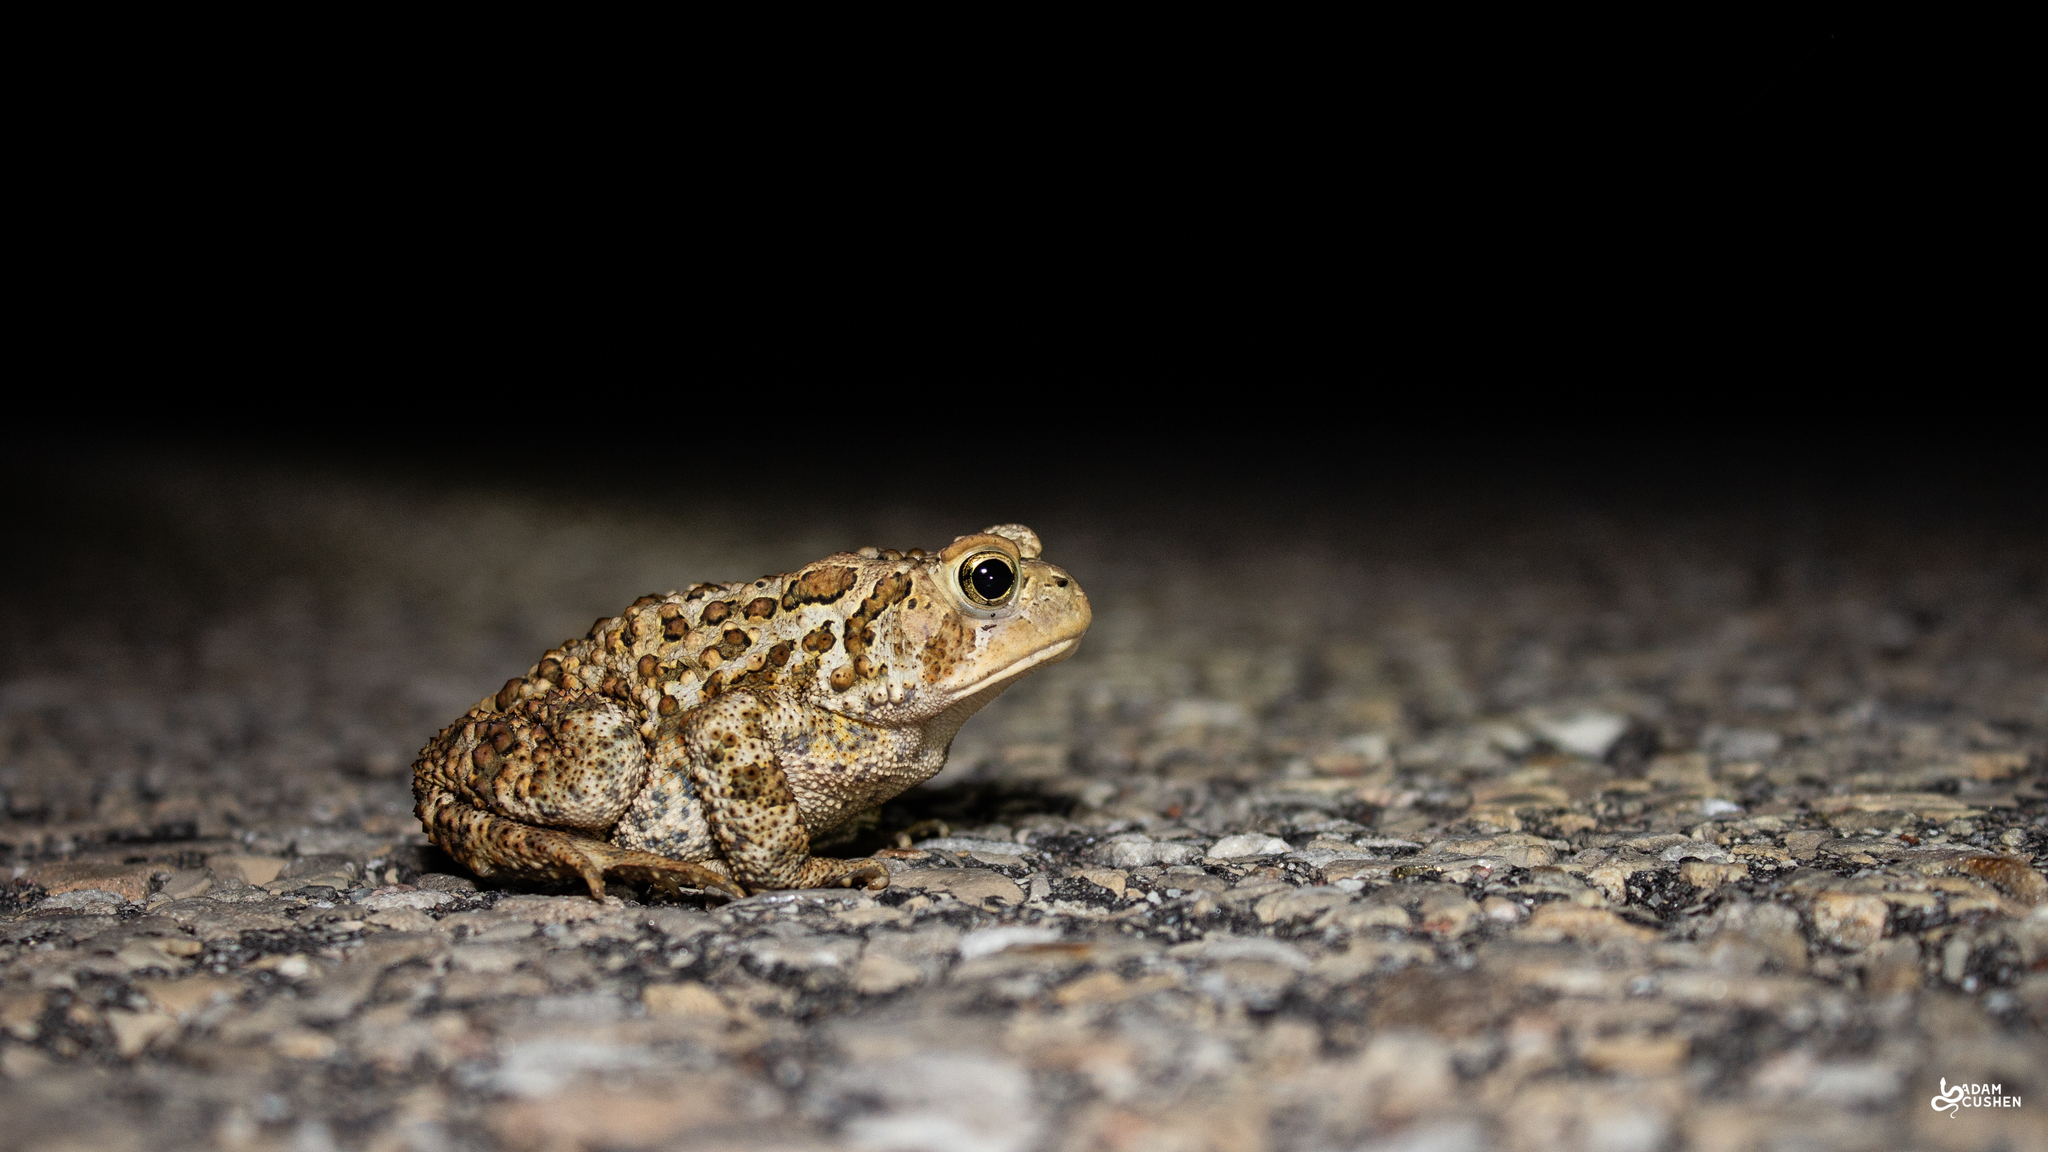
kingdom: Animalia
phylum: Chordata
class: Amphibia
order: Anura
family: Bufonidae
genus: Anaxyrus
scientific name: Anaxyrus americanus
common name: American toad
